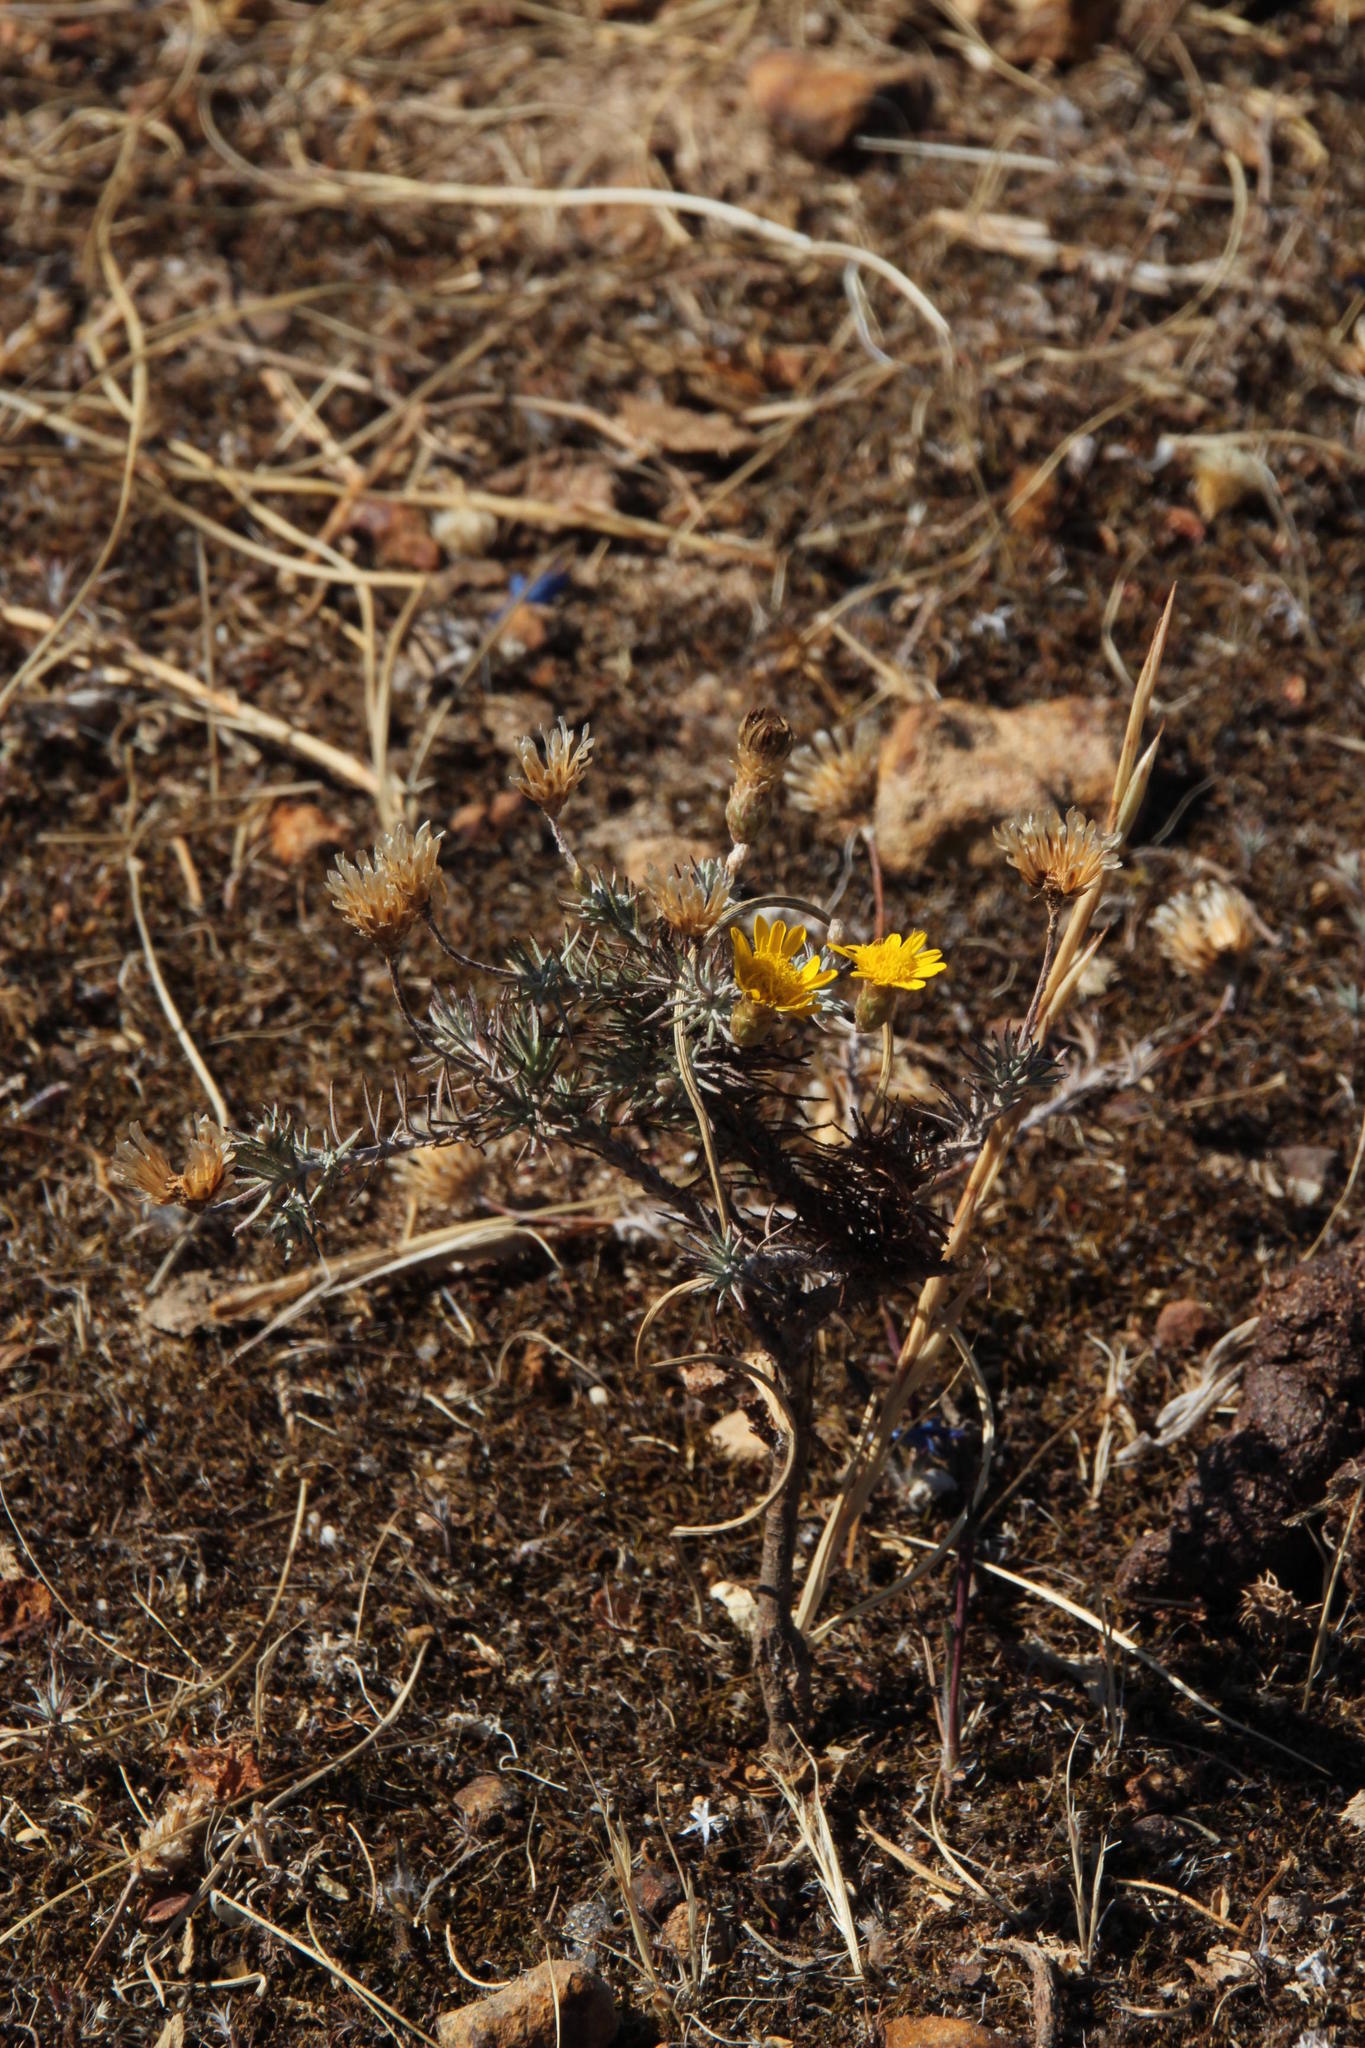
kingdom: Plantae
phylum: Tracheophyta
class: Magnoliopsida
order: Asterales
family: Asteraceae
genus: Leysera
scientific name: Leysera gnaphalodes
